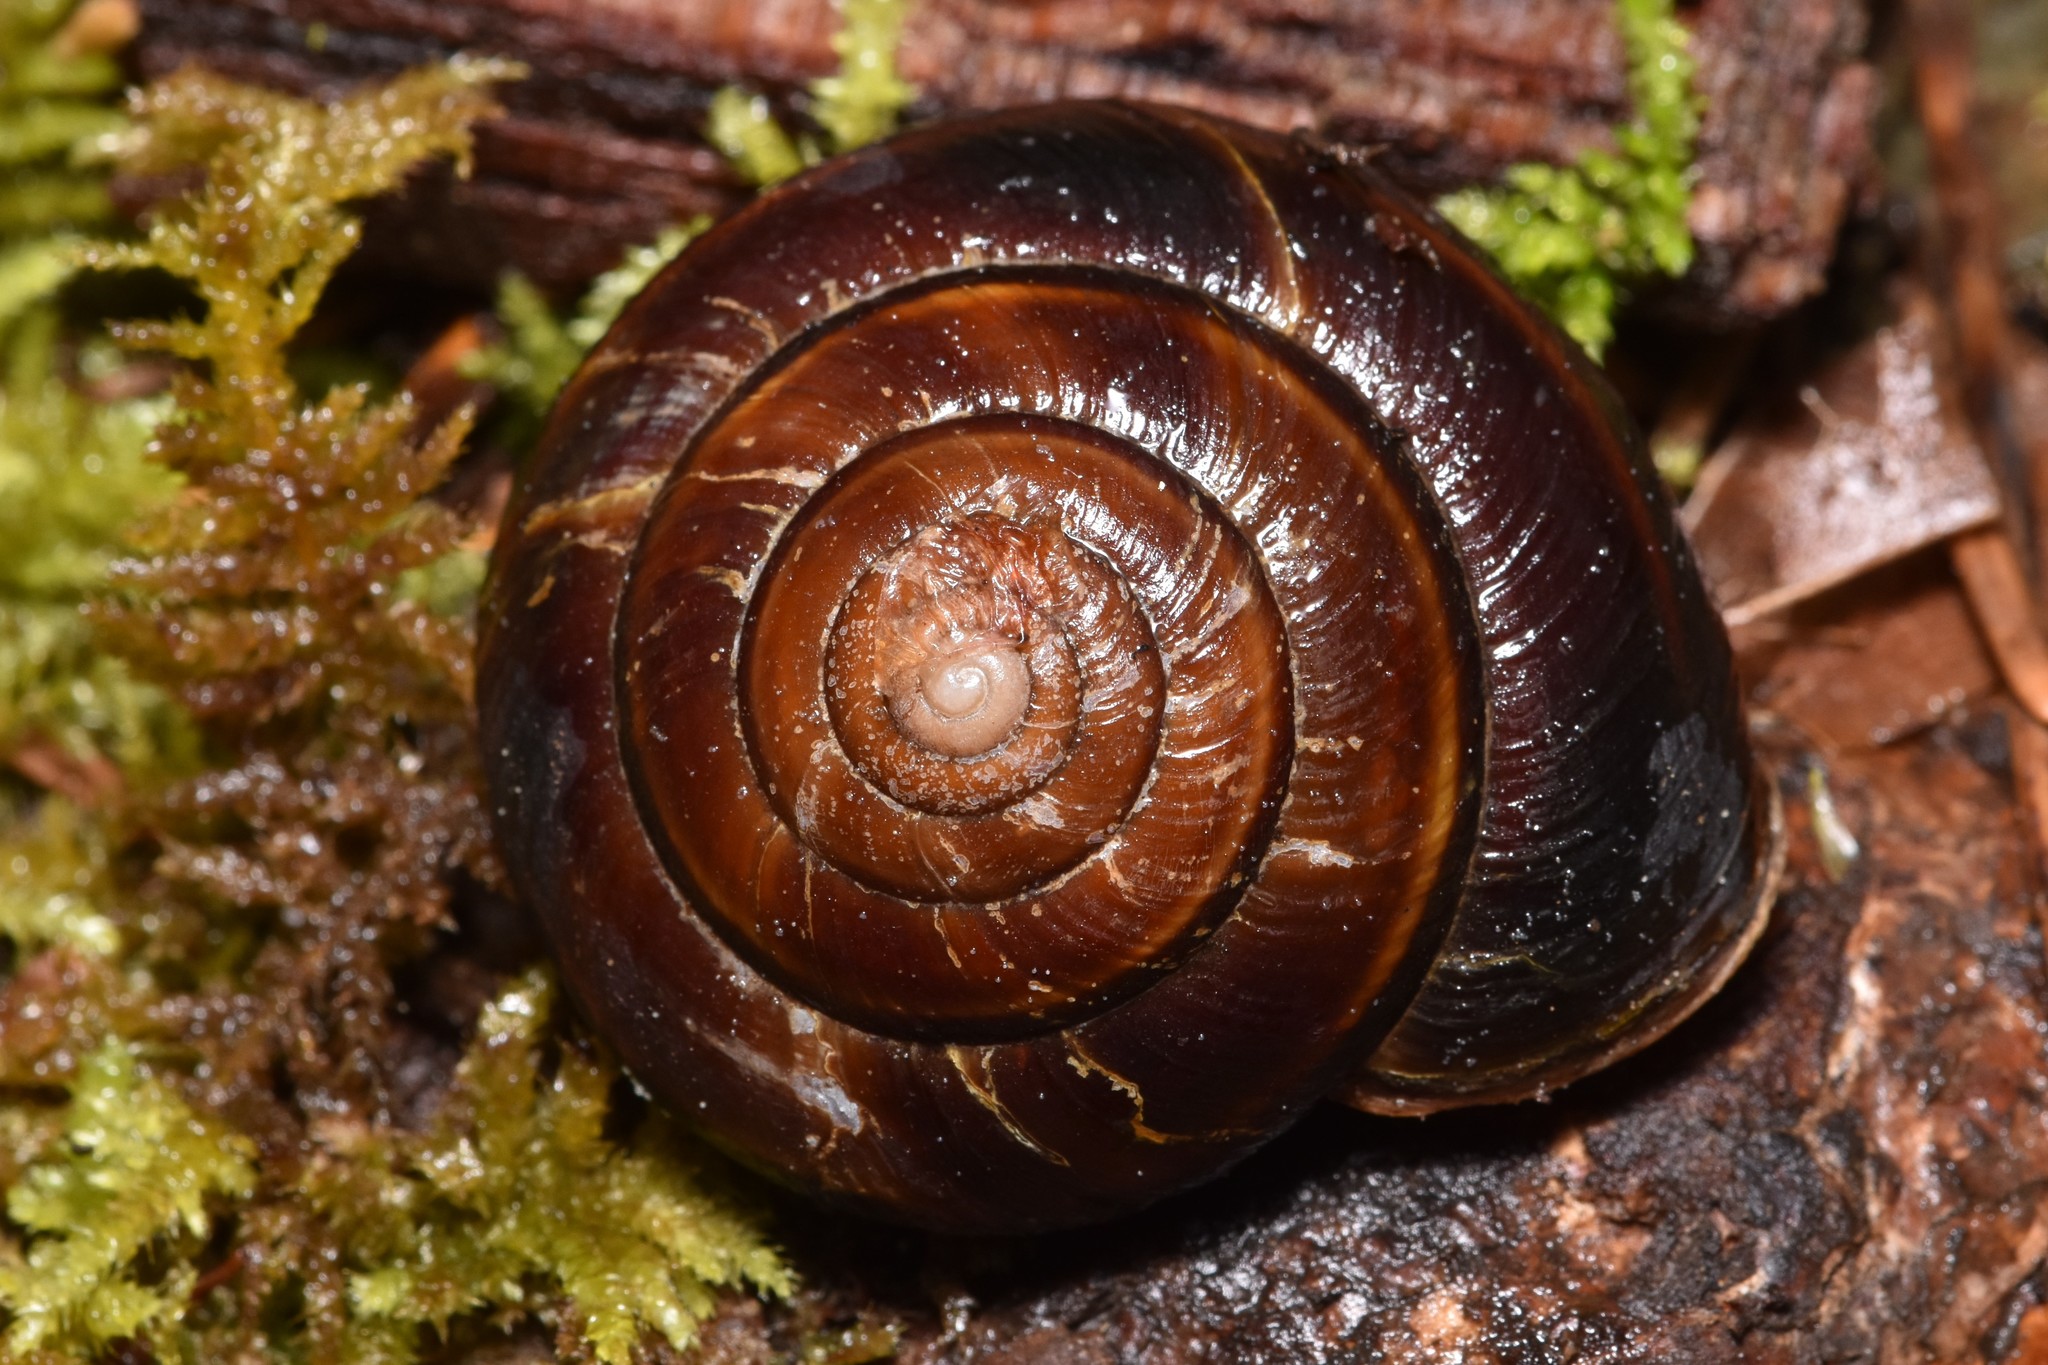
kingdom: Animalia
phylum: Mollusca
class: Gastropoda
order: Stylommatophora
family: Xanthonychidae
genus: Monadenia
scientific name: Monadenia fidelis
